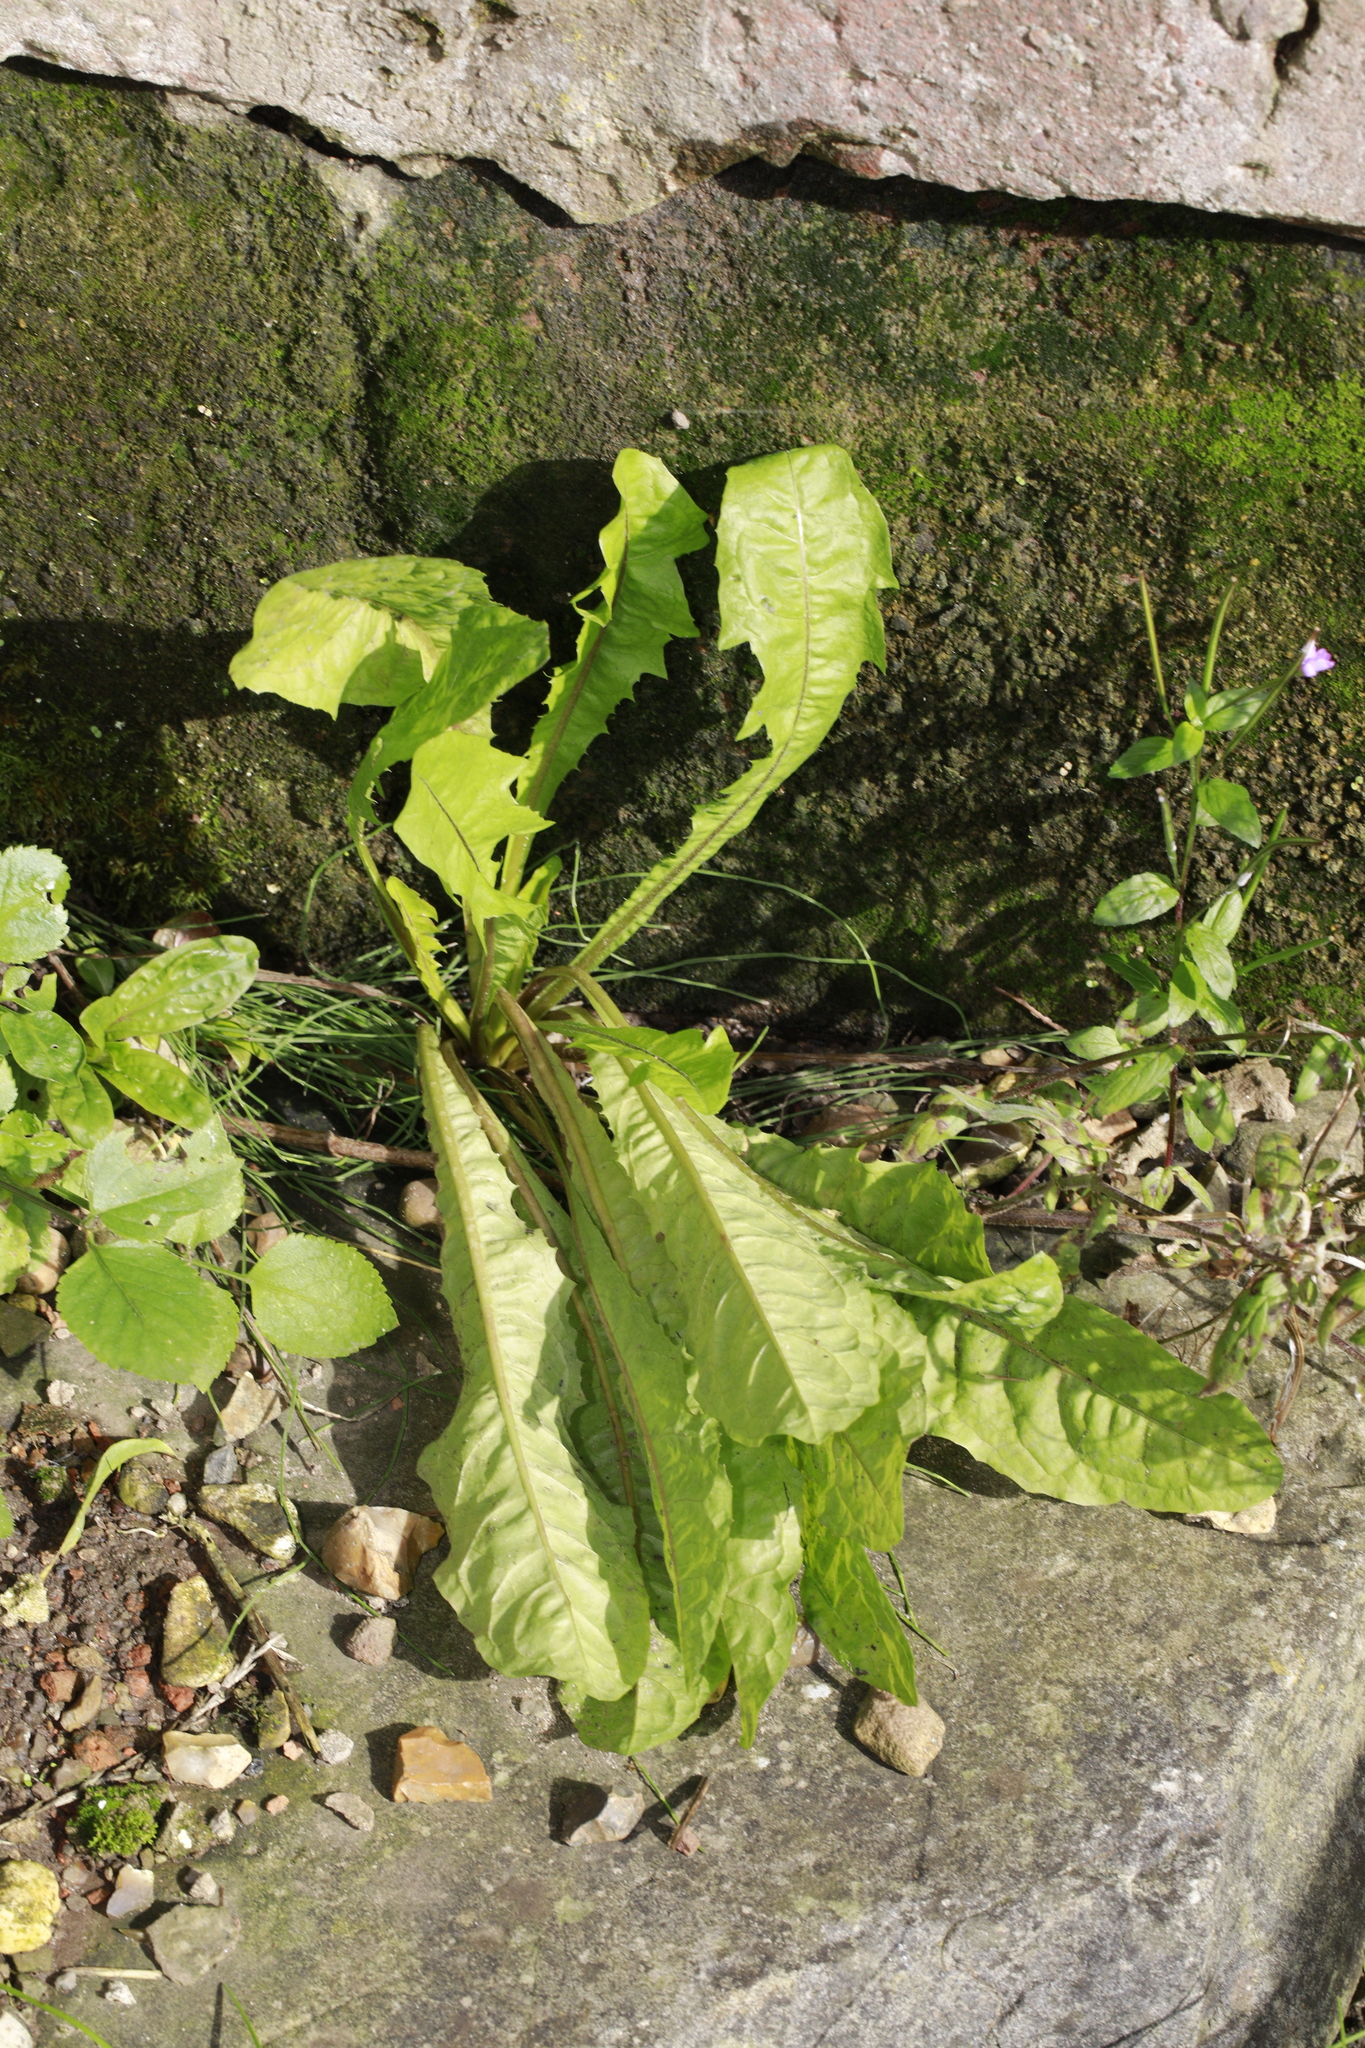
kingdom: Plantae
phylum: Tracheophyta
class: Magnoliopsida
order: Asterales
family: Asteraceae
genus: Taraxacum
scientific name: Taraxacum officinale
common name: Common dandelion
